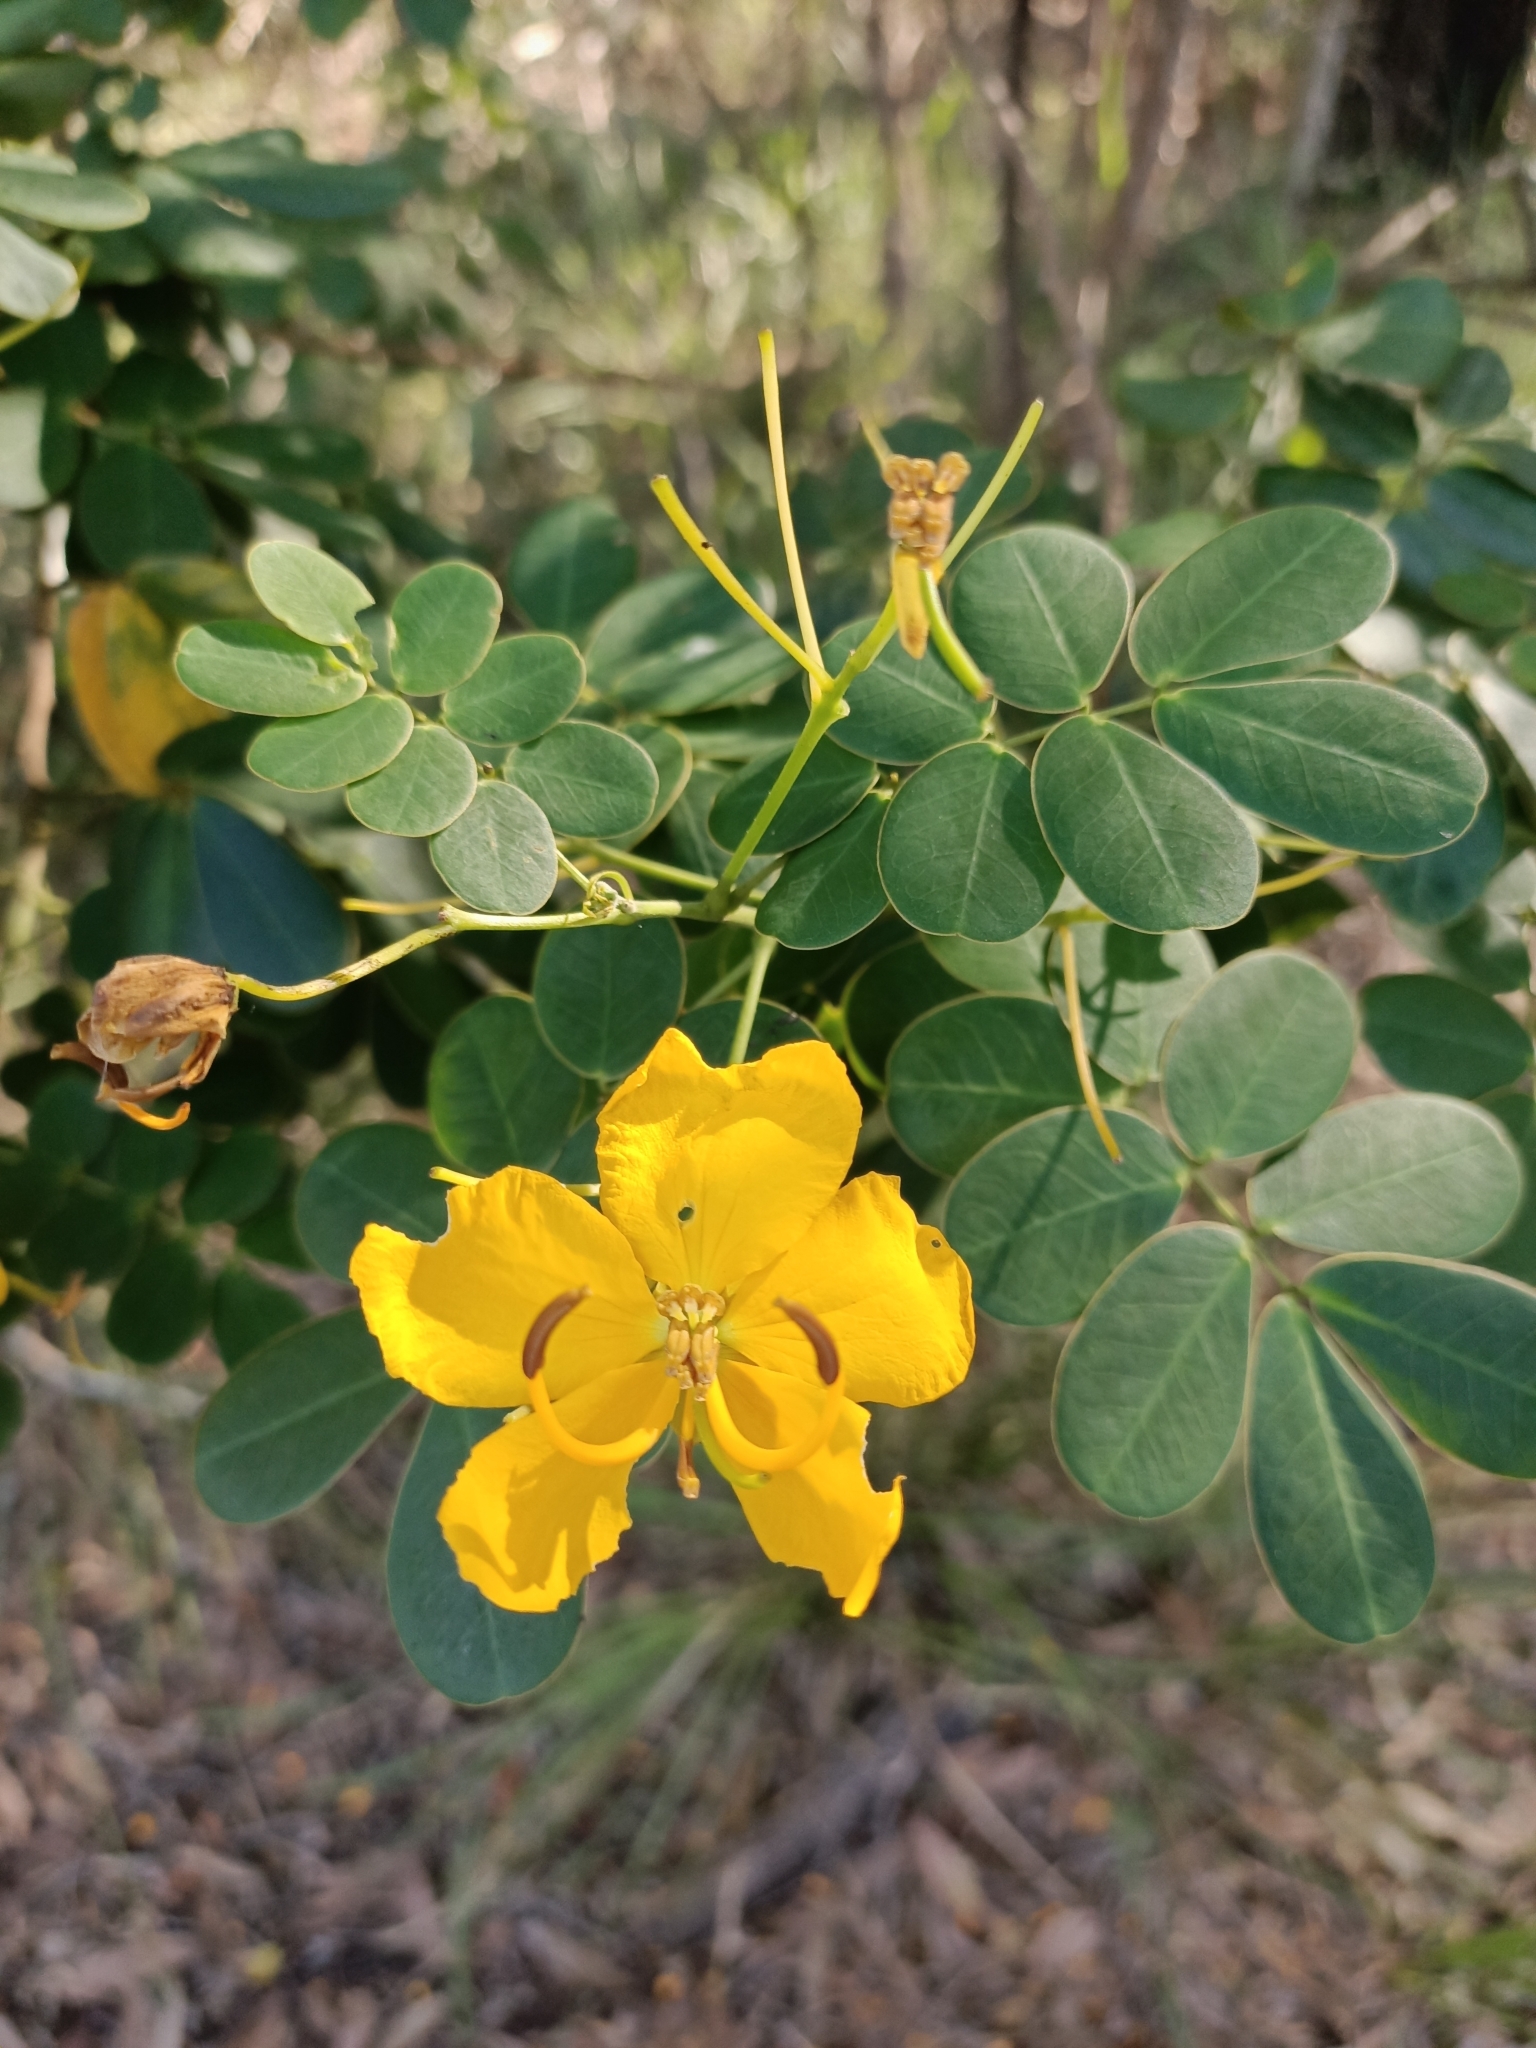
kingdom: Plantae
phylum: Tracheophyta
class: Magnoliopsida
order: Fabales
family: Fabaceae
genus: Senna
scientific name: Senna pendula
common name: Easter cassia
